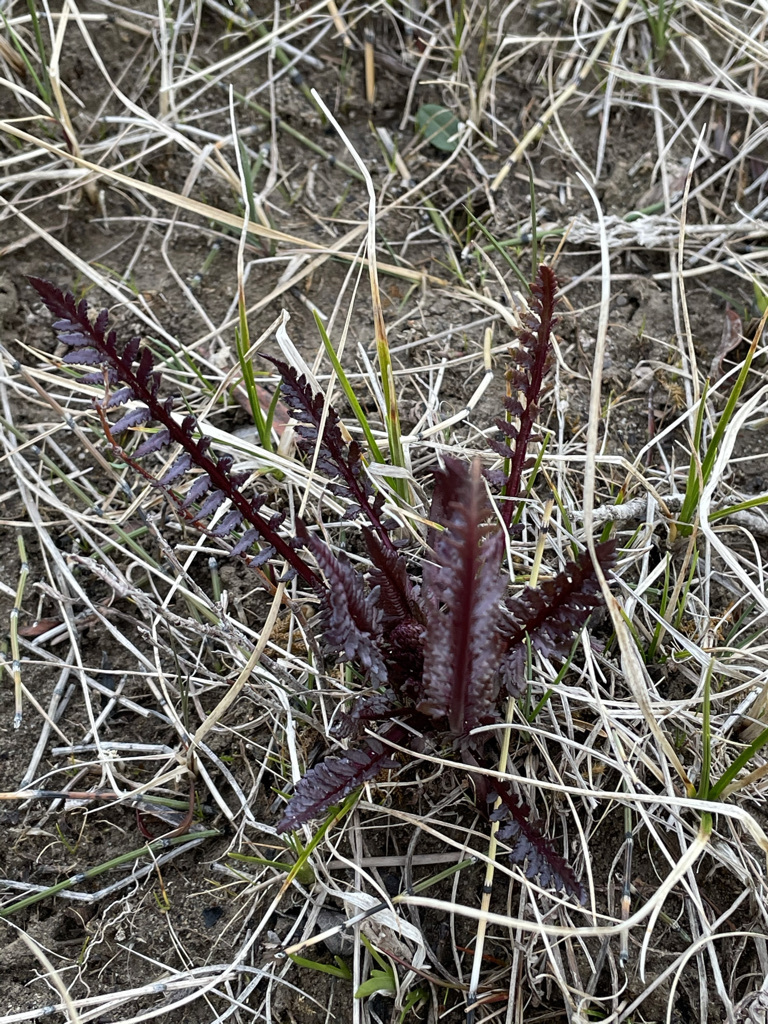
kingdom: Plantae
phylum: Tracheophyta
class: Magnoliopsida
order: Lamiales
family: Orobanchaceae
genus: Pedicularis
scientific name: Pedicularis groenlandica
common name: Elephant's-head
